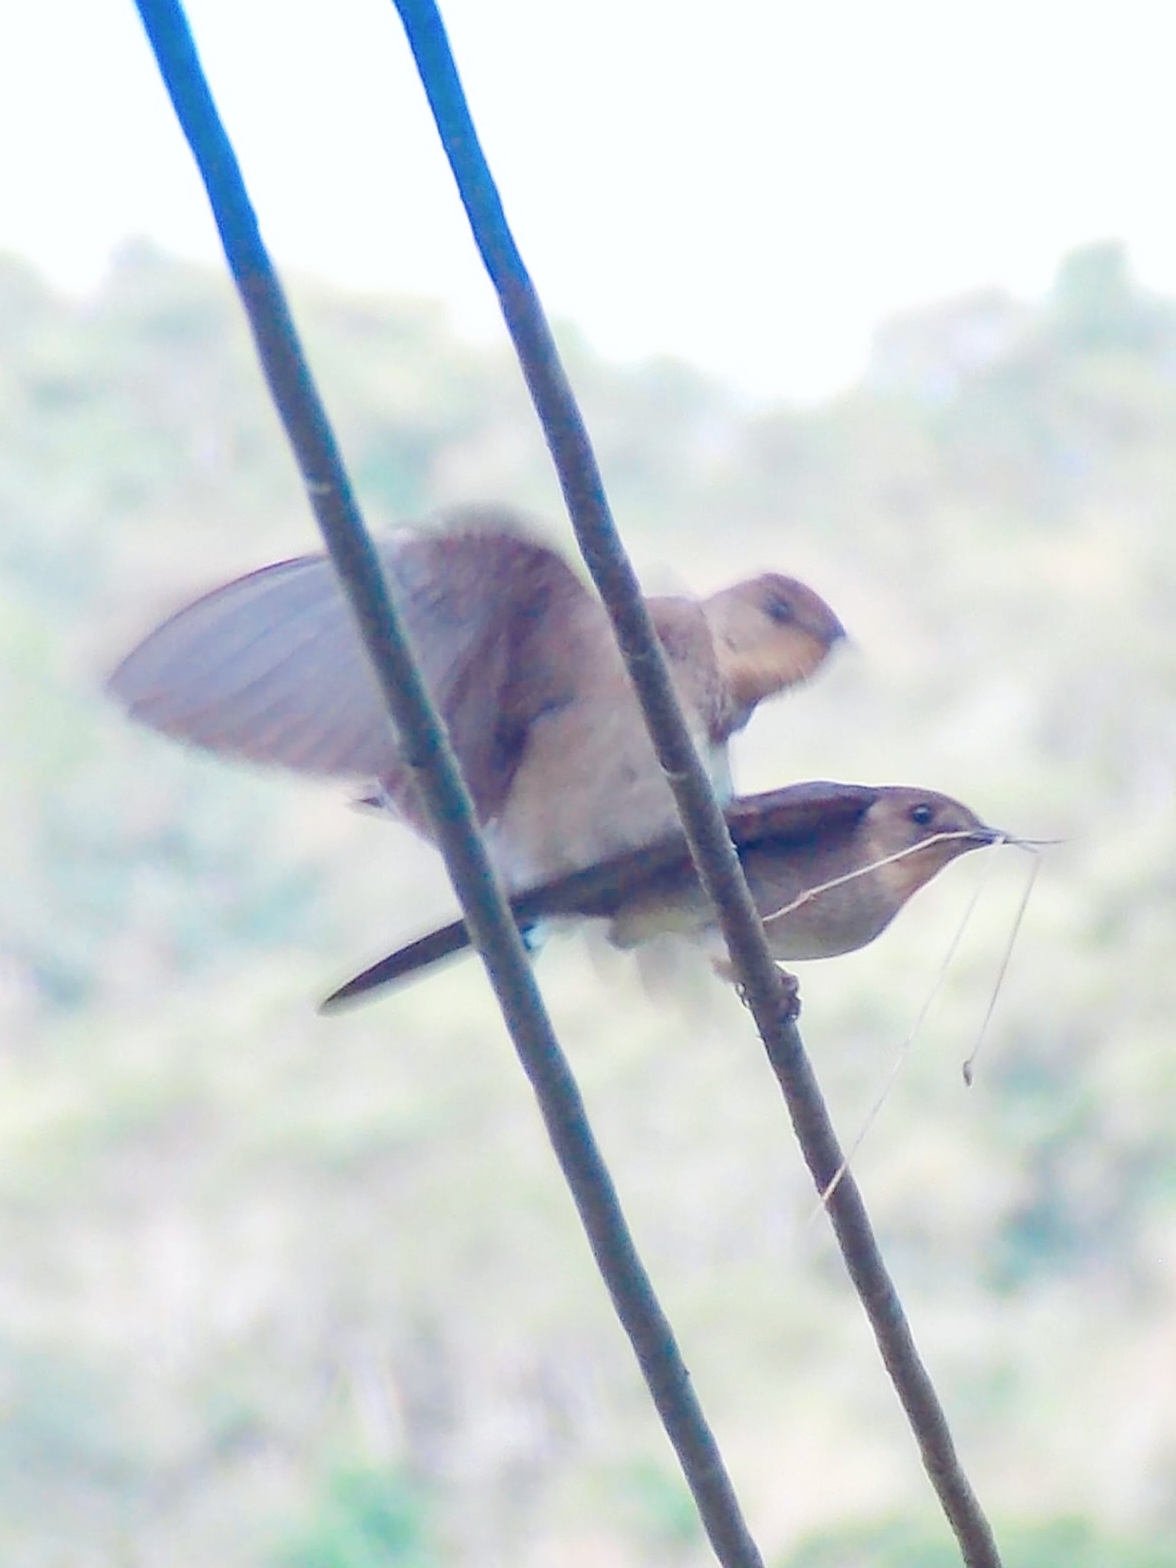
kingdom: Animalia
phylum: Chordata
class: Aves
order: Passeriformes
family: Hirundinidae
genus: Stelgidopteryx
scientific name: Stelgidopteryx ruficollis
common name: Southern rough-winged swallow
